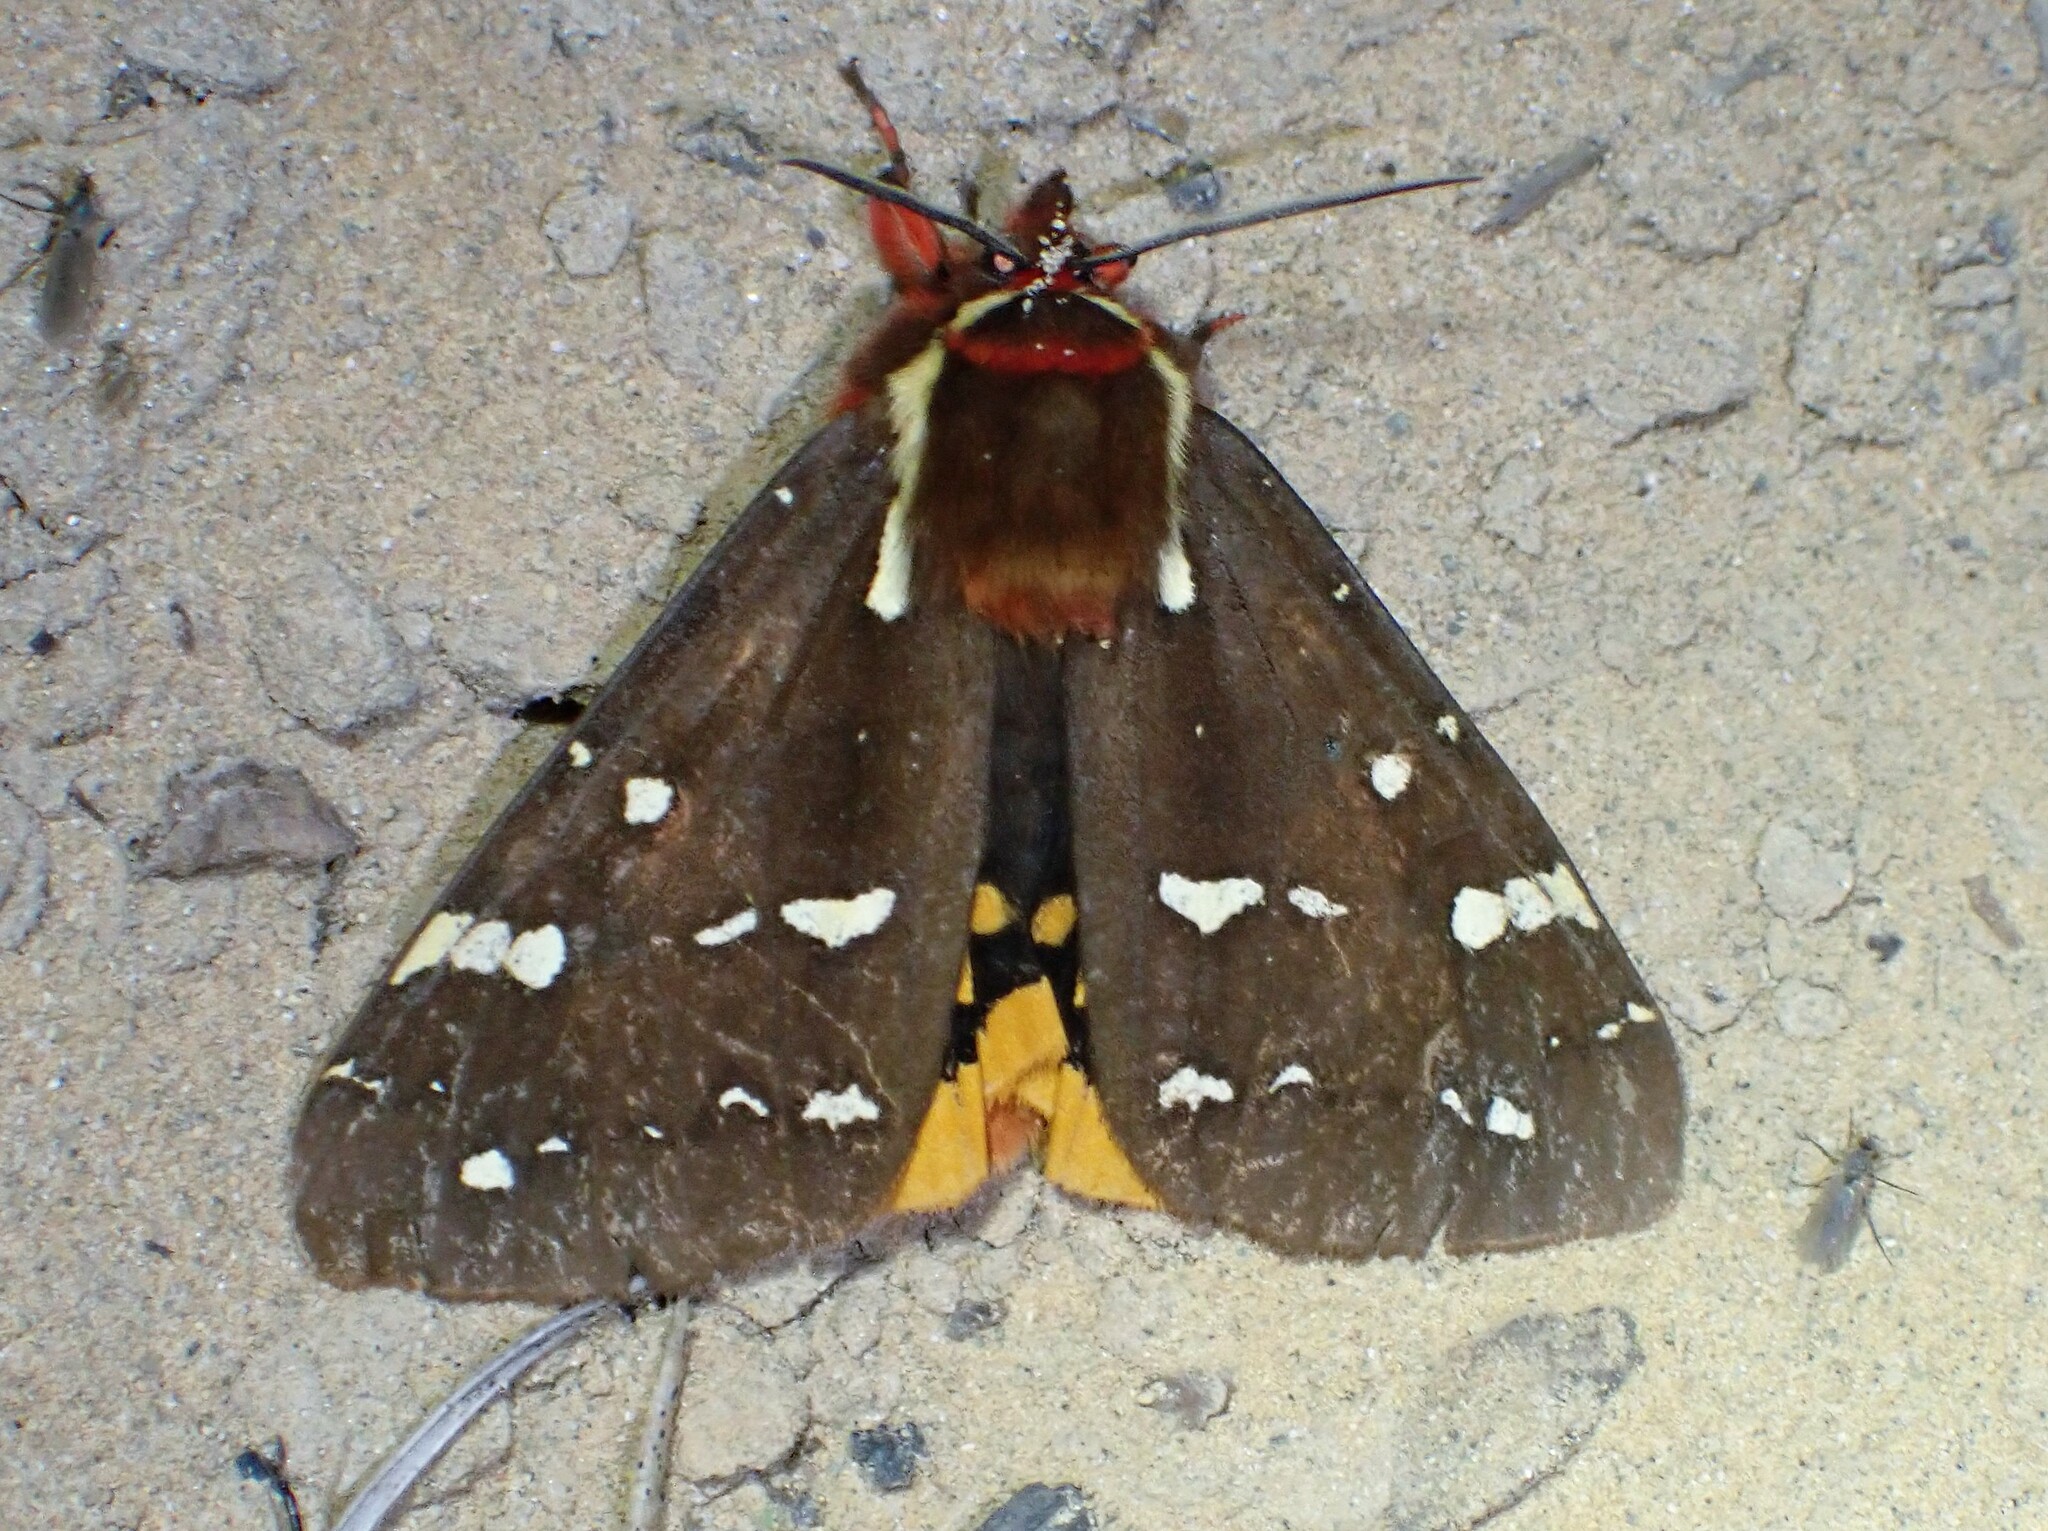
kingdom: Animalia
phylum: Arthropoda
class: Insecta
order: Lepidoptera
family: Erebidae
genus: Arctia
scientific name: Arctia parthenos
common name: St. lawrence tiger moth
